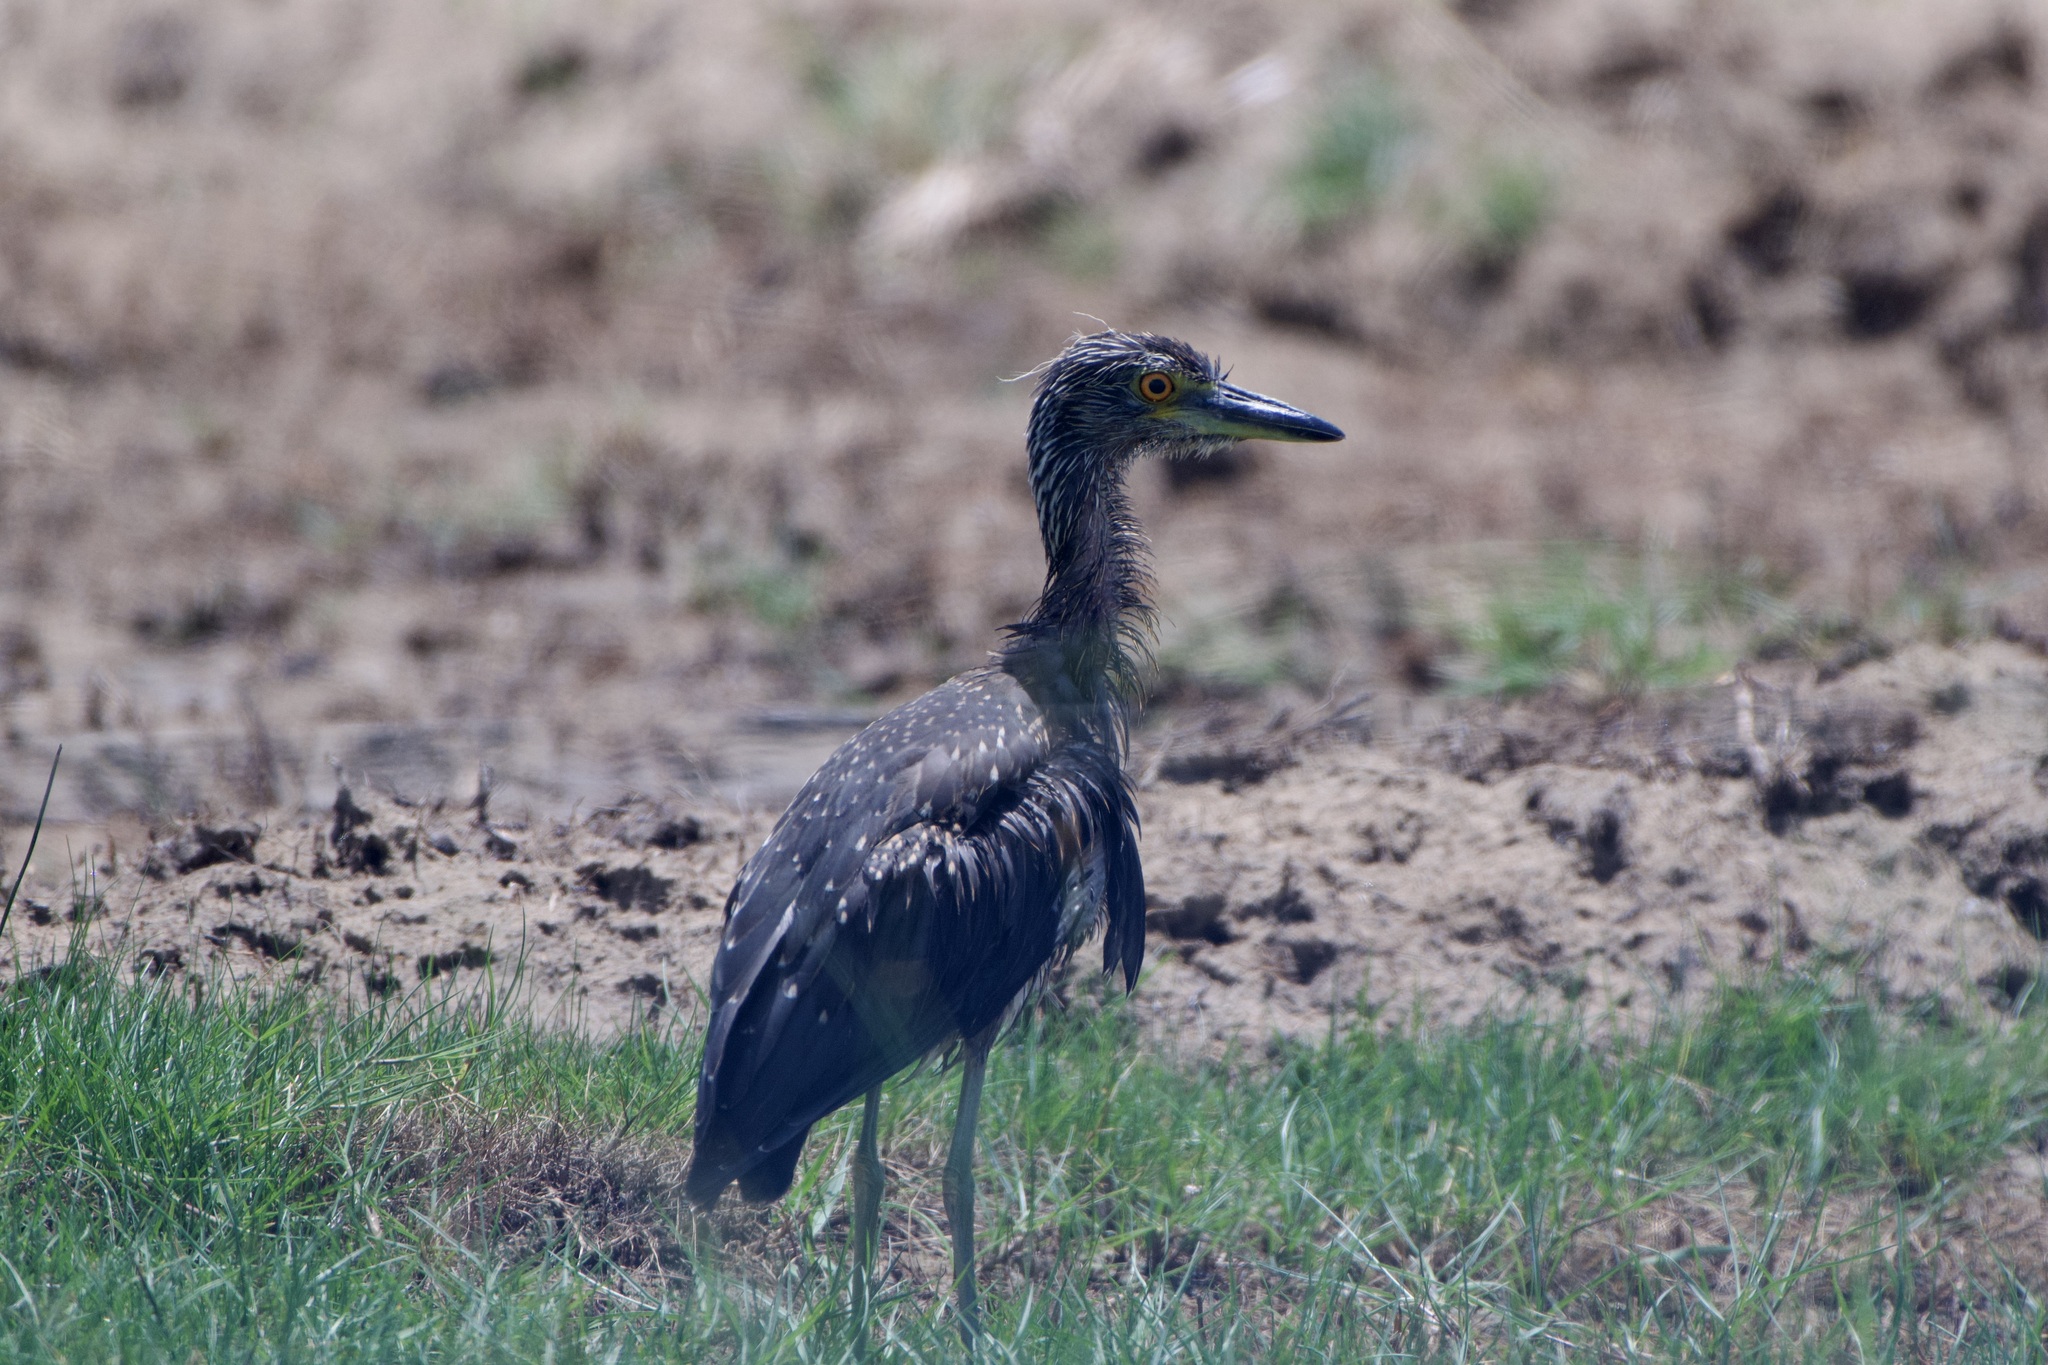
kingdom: Animalia
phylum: Chordata
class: Aves
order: Pelecaniformes
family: Ardeidae
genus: Nyctanassa
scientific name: Nyctanassa violacea
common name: Yellow-crowned night heron
